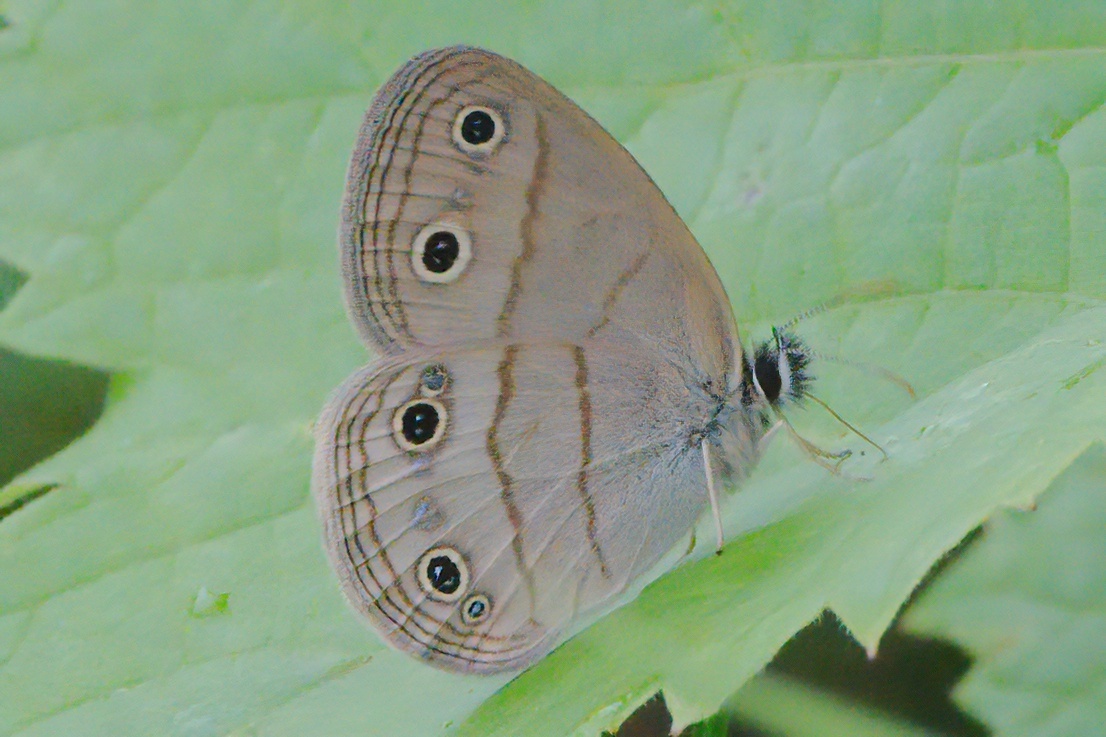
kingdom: Animalia
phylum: Arthropoda
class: Insecta
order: Lepidoptera
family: Nymphalidae
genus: Euptychia
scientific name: Euptychia cymela
